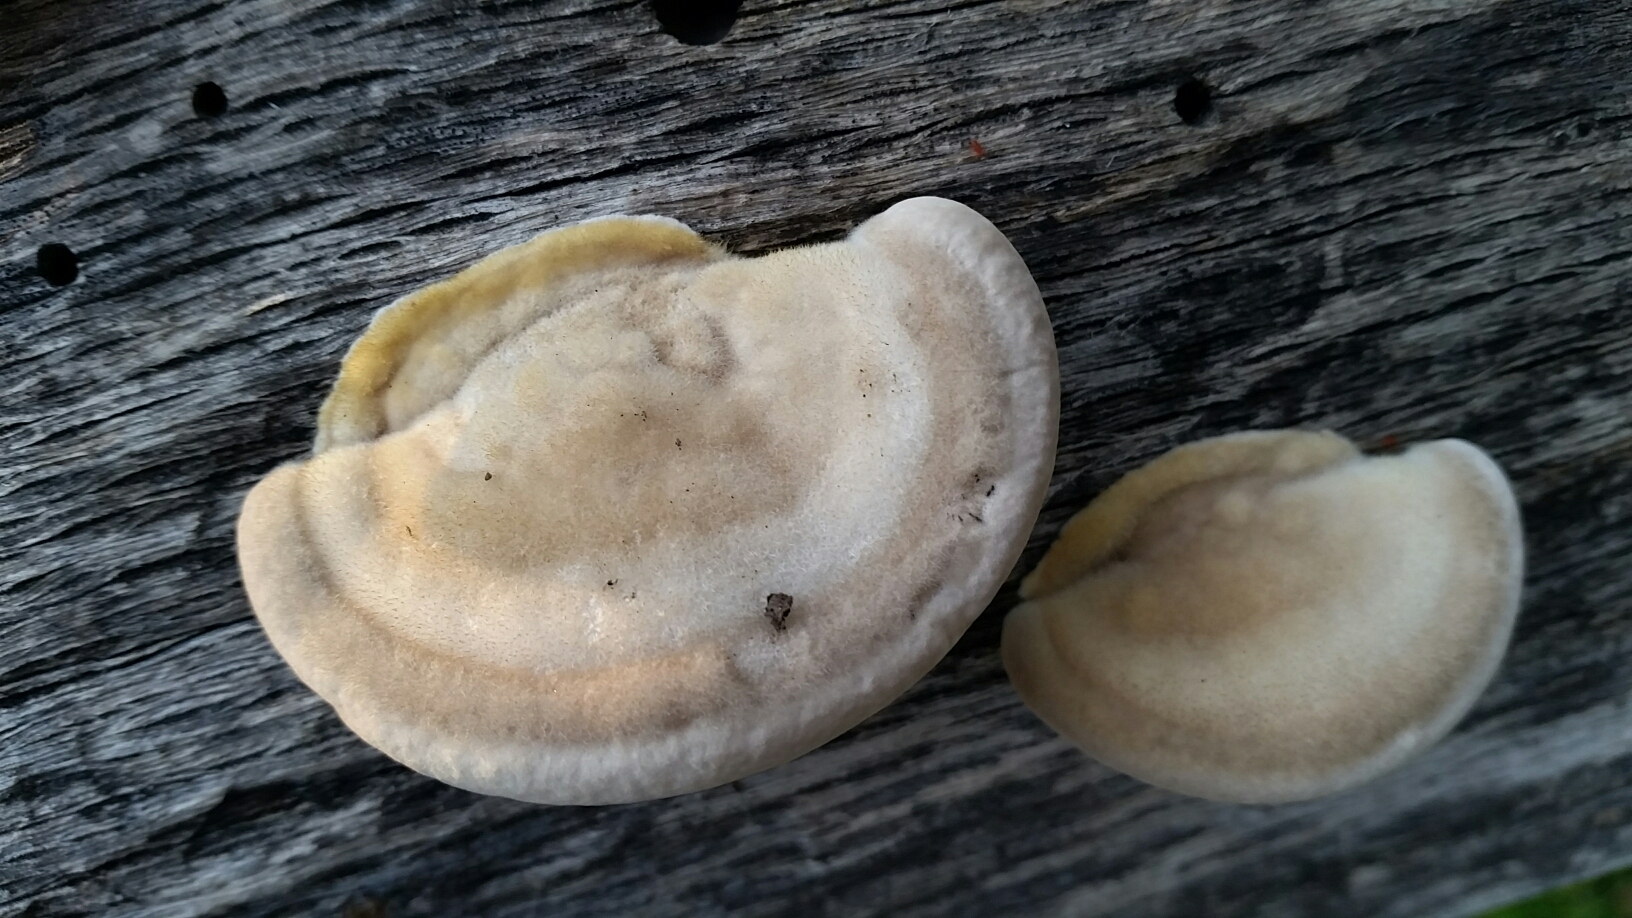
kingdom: Fungi
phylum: Basidiomycota
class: Agaricomycetes
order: Polyporales
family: Polyporaceae
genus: Trametes
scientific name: Trametes hirsuta
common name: Hairy bracket
